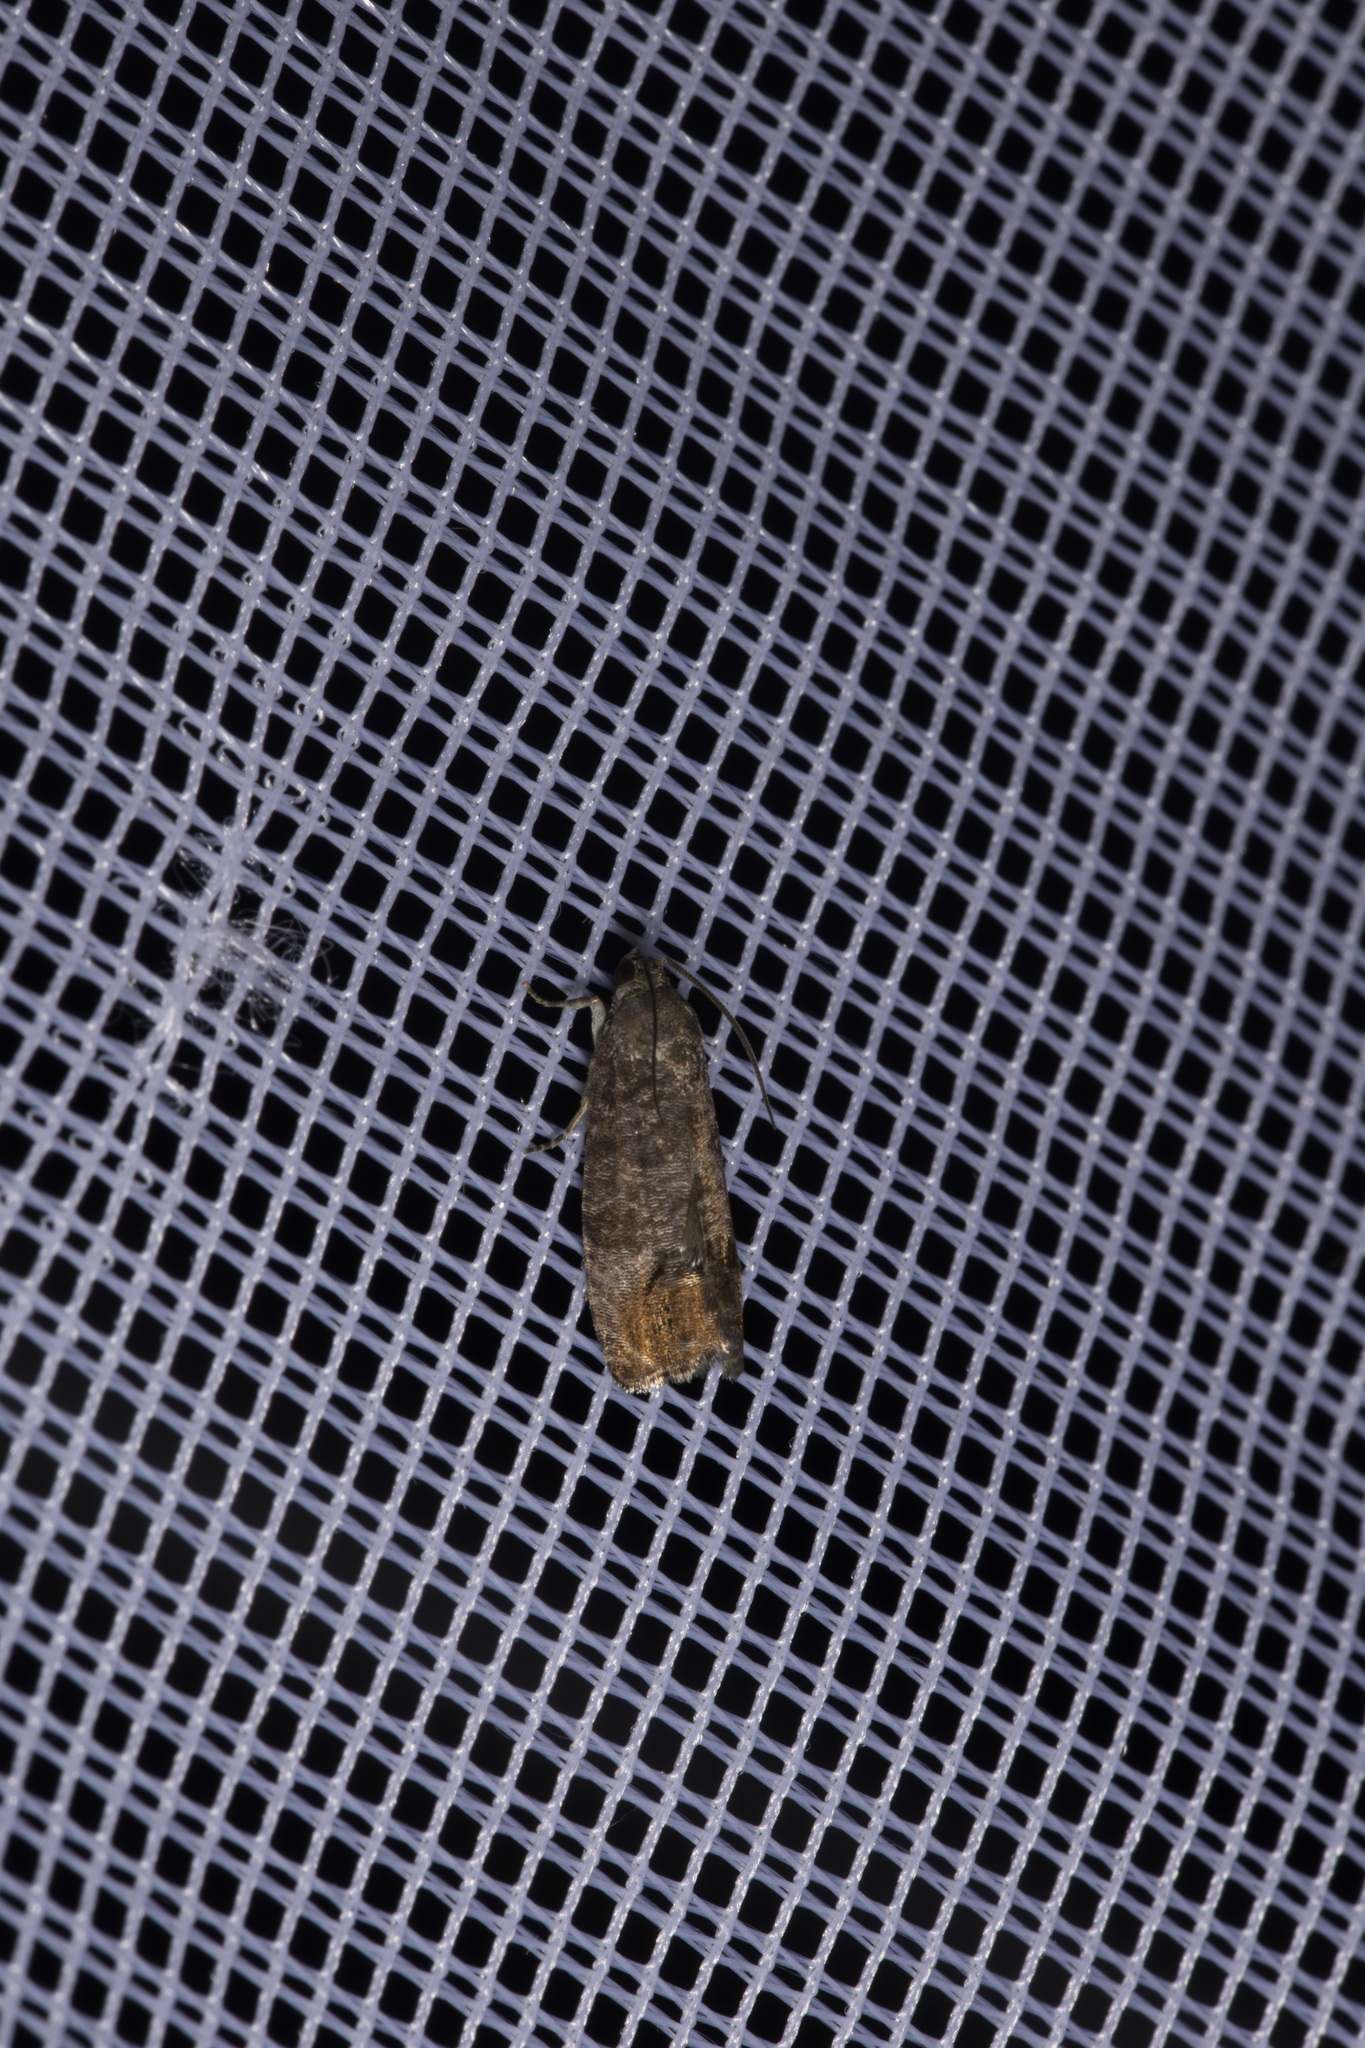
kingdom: Animalia
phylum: Arthropoda
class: Insecta
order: Lepidoptera
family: Tortricidae
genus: Cydia
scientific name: Cydia pomonella
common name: Codling moth
